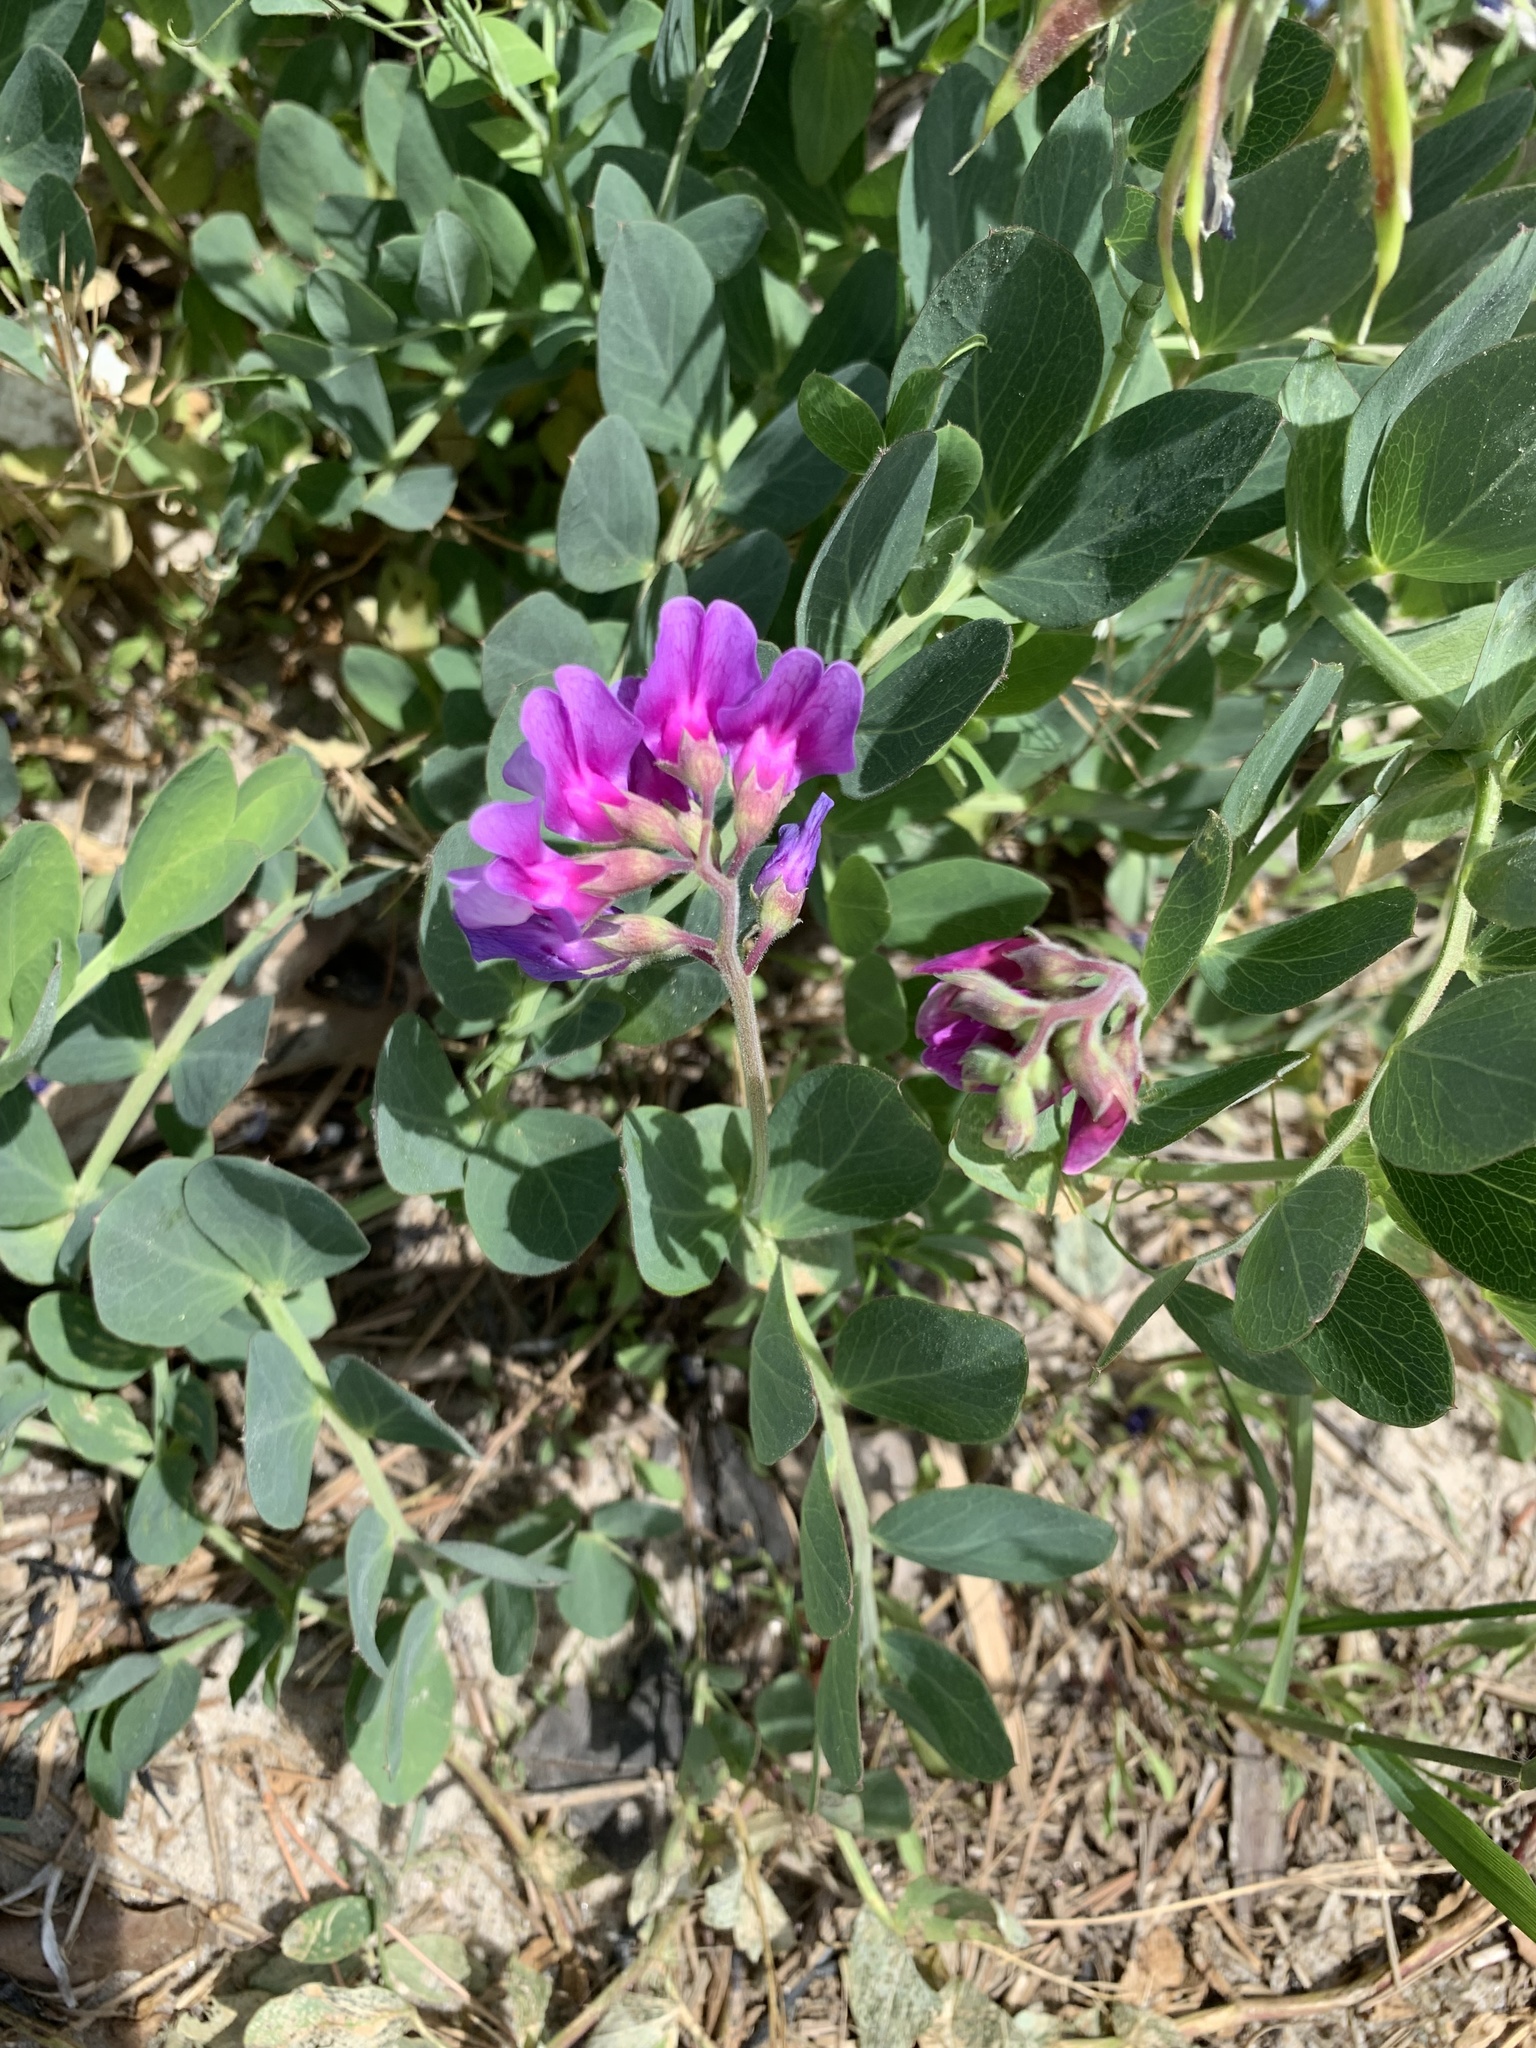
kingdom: Plantae
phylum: Tracheophyta
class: Magnoliopsida
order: Fabales
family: Fabaceae
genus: Lathyrus
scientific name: Lathyrus japonicus
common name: Sea pea
